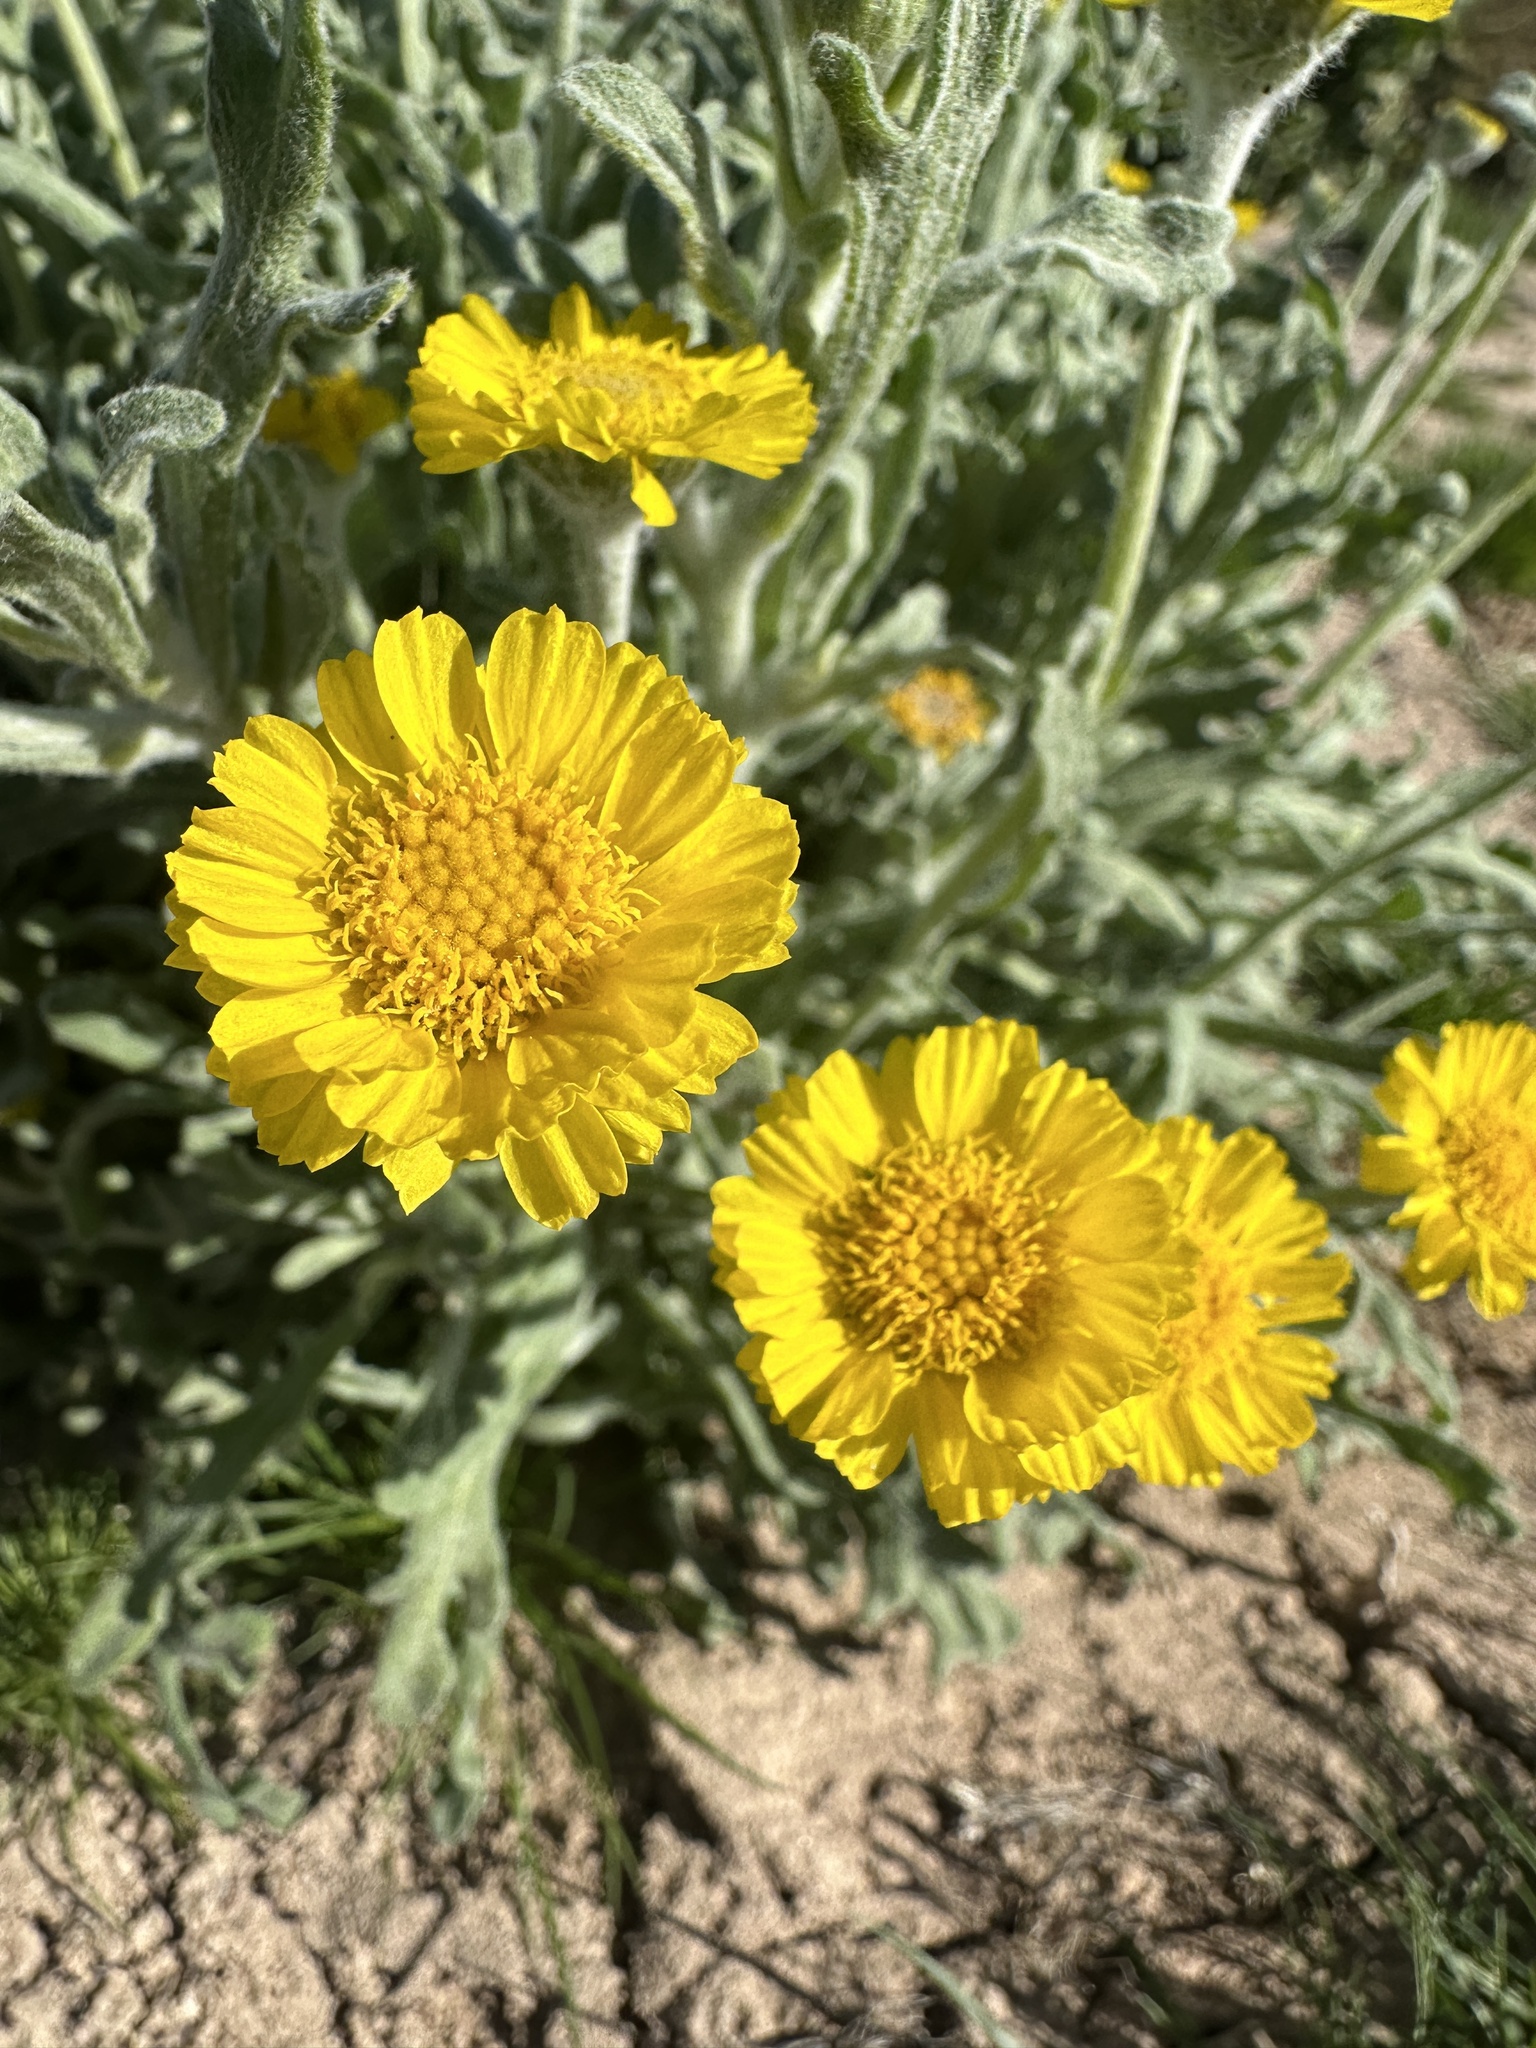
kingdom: Plantae
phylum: Tracheophyta
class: Magnoliopsida
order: Asterales
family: Asteraceae
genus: Baileya
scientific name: Baileya pleniradiata
